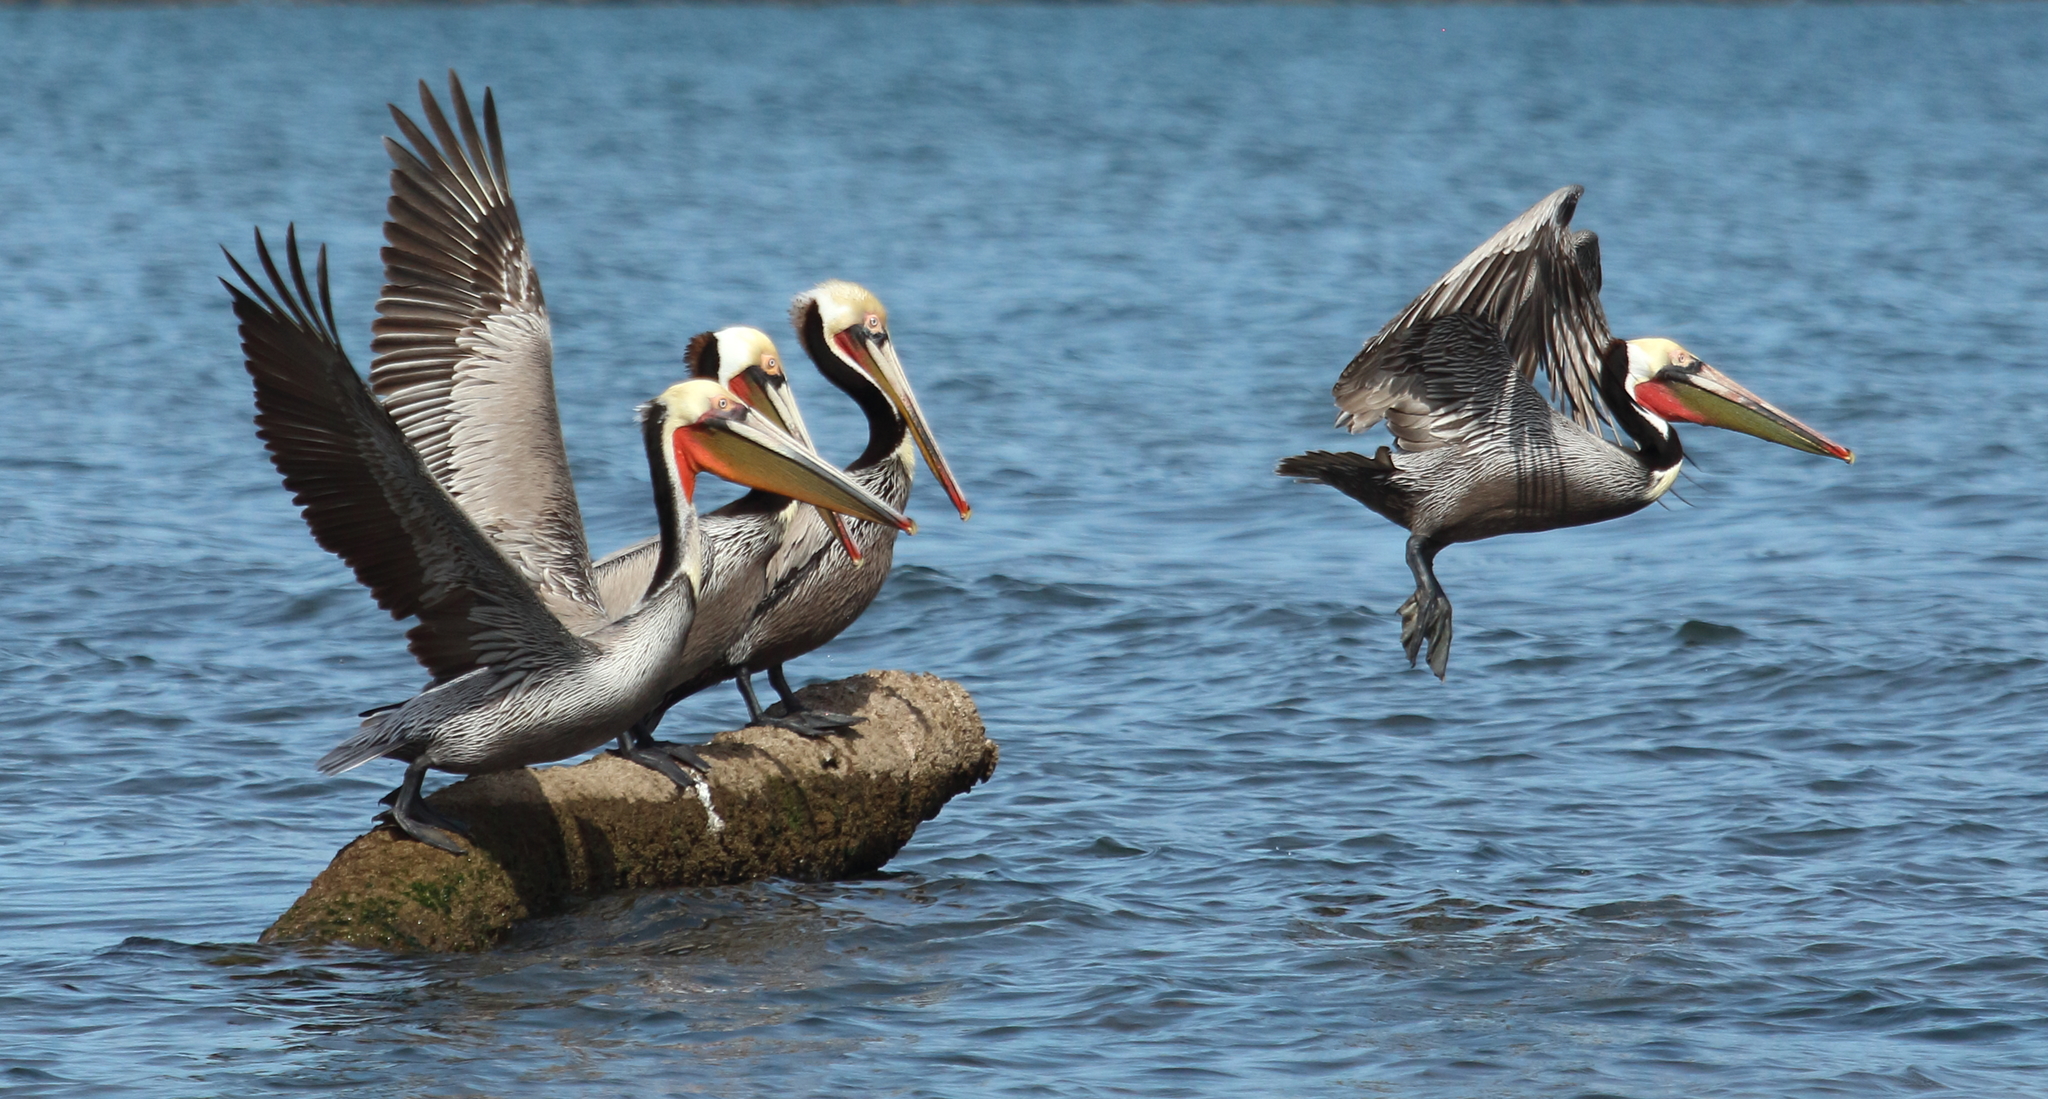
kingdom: Animalia
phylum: Chordata
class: Aves
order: Pelecaniformes
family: Pelecanidae
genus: Pelecanus
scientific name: Pelecanus occidentalis
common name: Brown pelican
